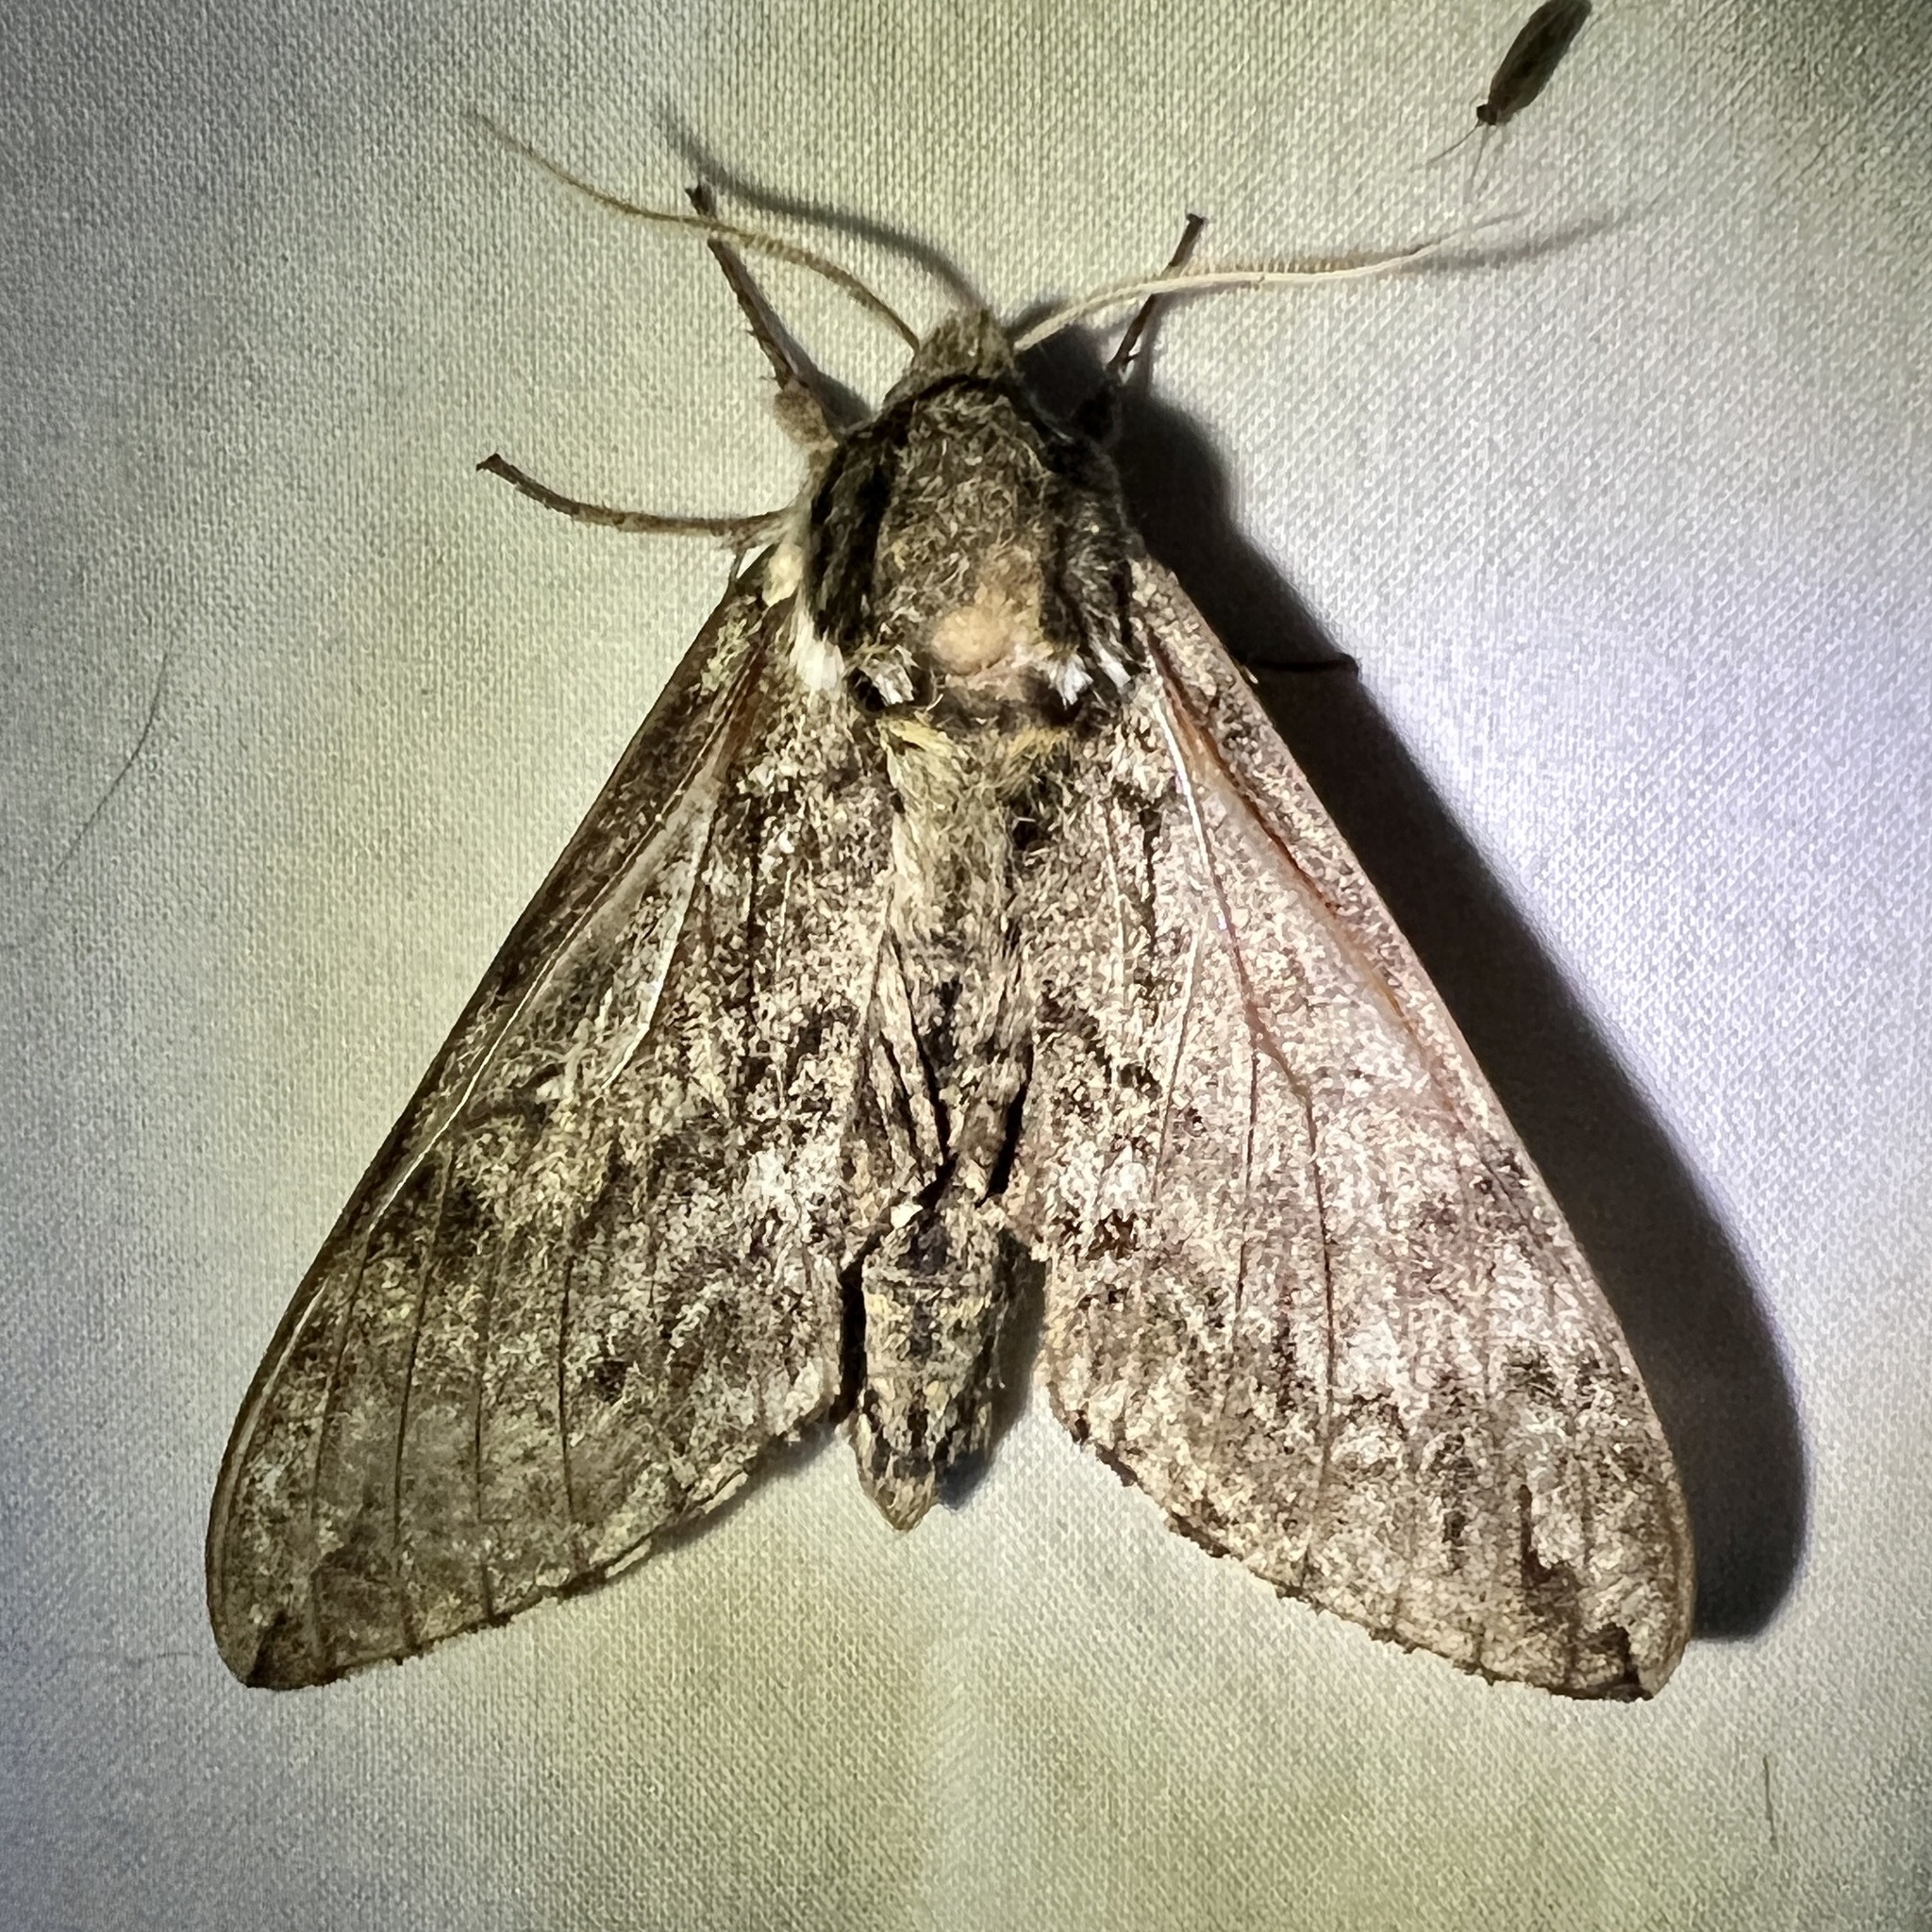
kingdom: Animalia
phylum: Arthropoda
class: Insecta
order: Lepidoptera
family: Sphingidae
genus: Ceratomia
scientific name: Ceratomia undulosa
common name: Waved sphinx
